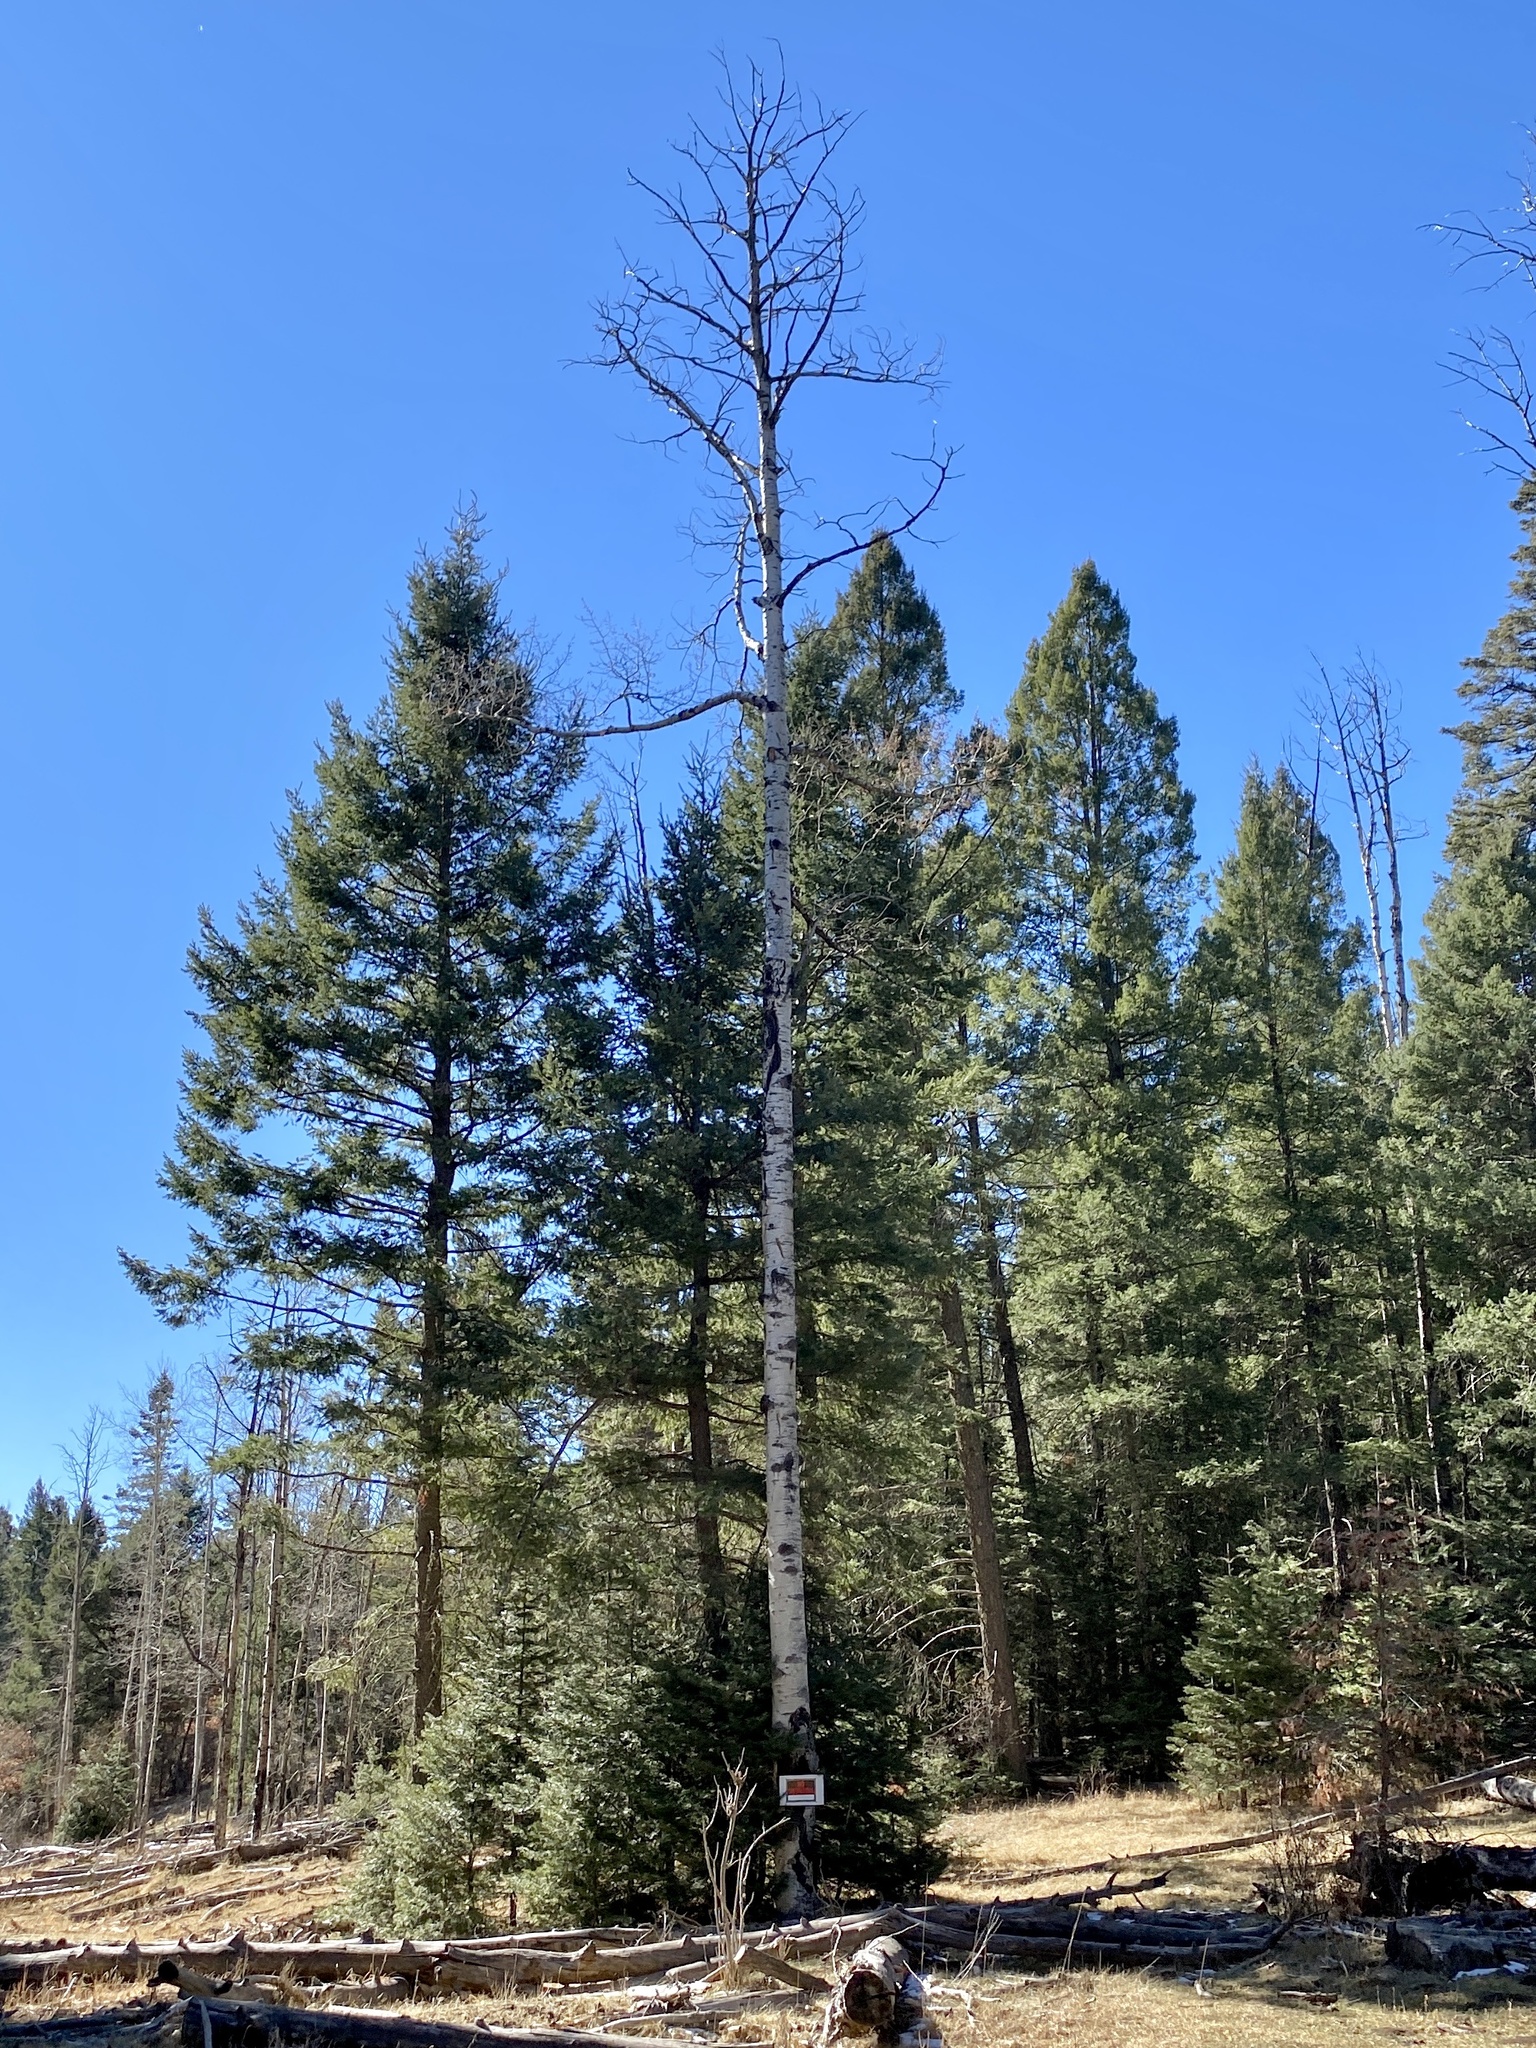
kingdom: Plantae
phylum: Tracheophyta
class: Magnoliopsida
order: Malpighiales
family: Salicaceae
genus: Populus
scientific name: Populus tremuloides
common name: Quaking aspen
